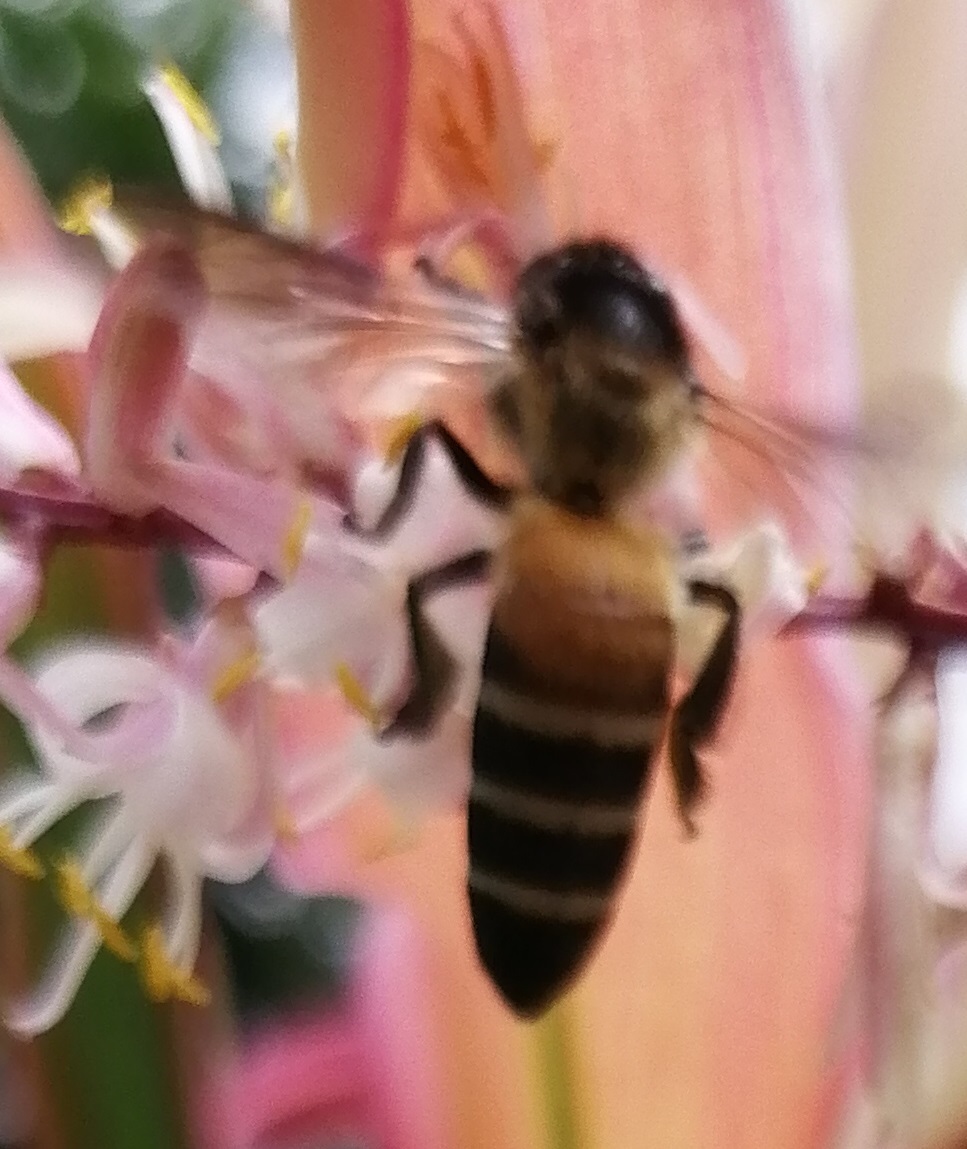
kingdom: Animalia
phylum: Arthropoda
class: Insecta
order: Hymenoptera
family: Apidae
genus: Apis
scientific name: Apis dorsata
